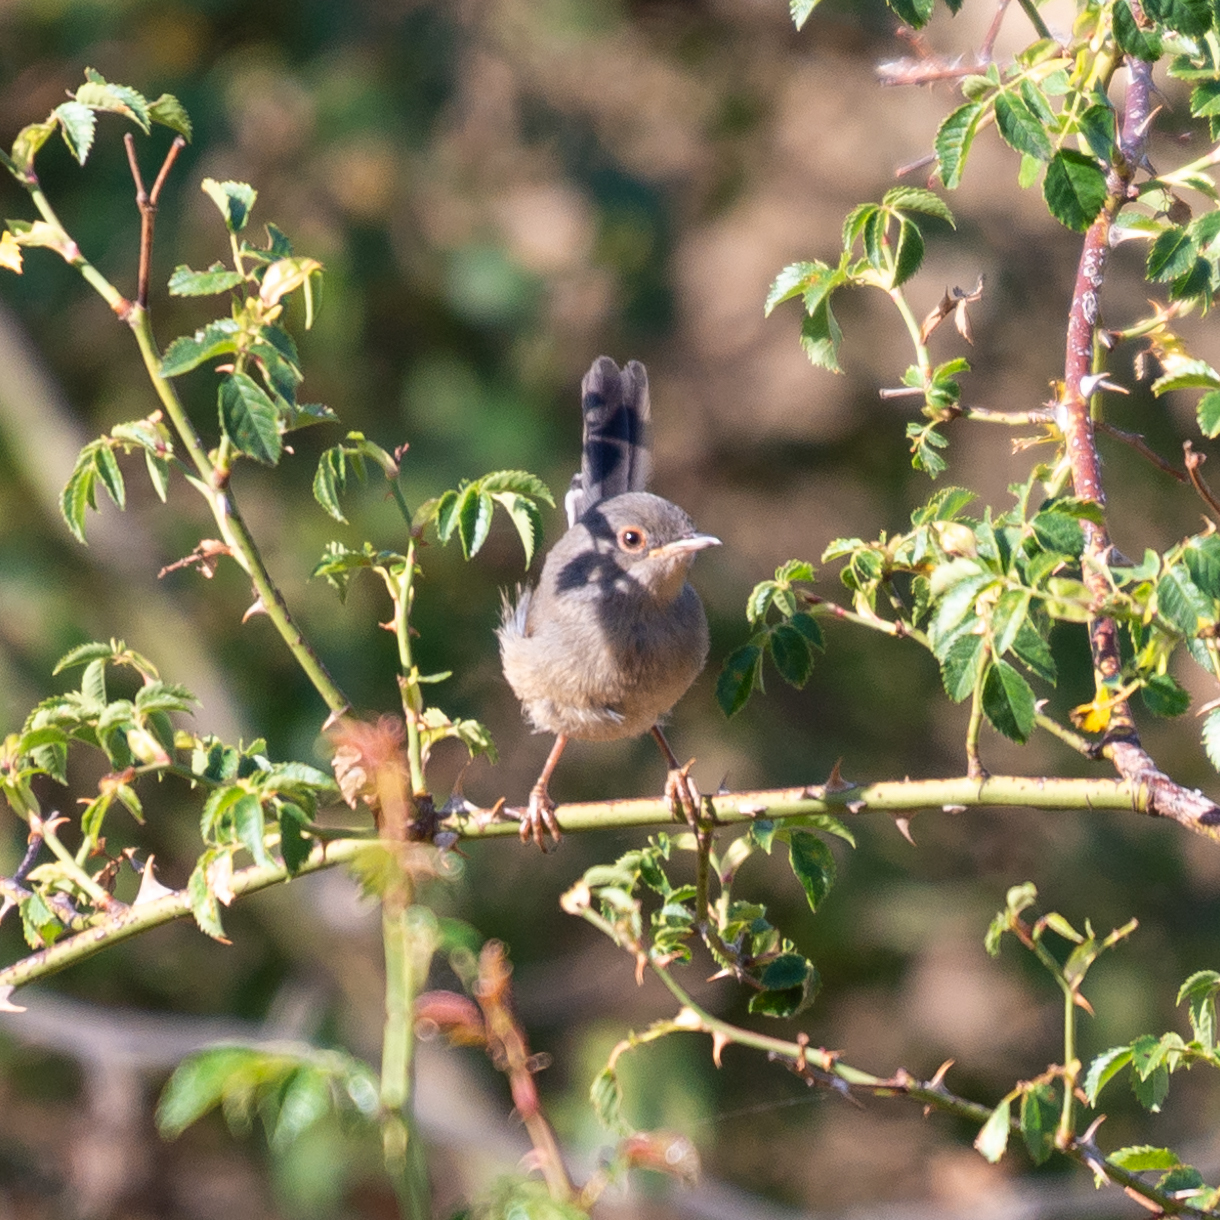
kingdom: Animalia
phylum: Chordata
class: Aves
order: Passeriformes
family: Sylviidae
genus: Sylvia
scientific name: Sylvia undata
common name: Dartford warbler
